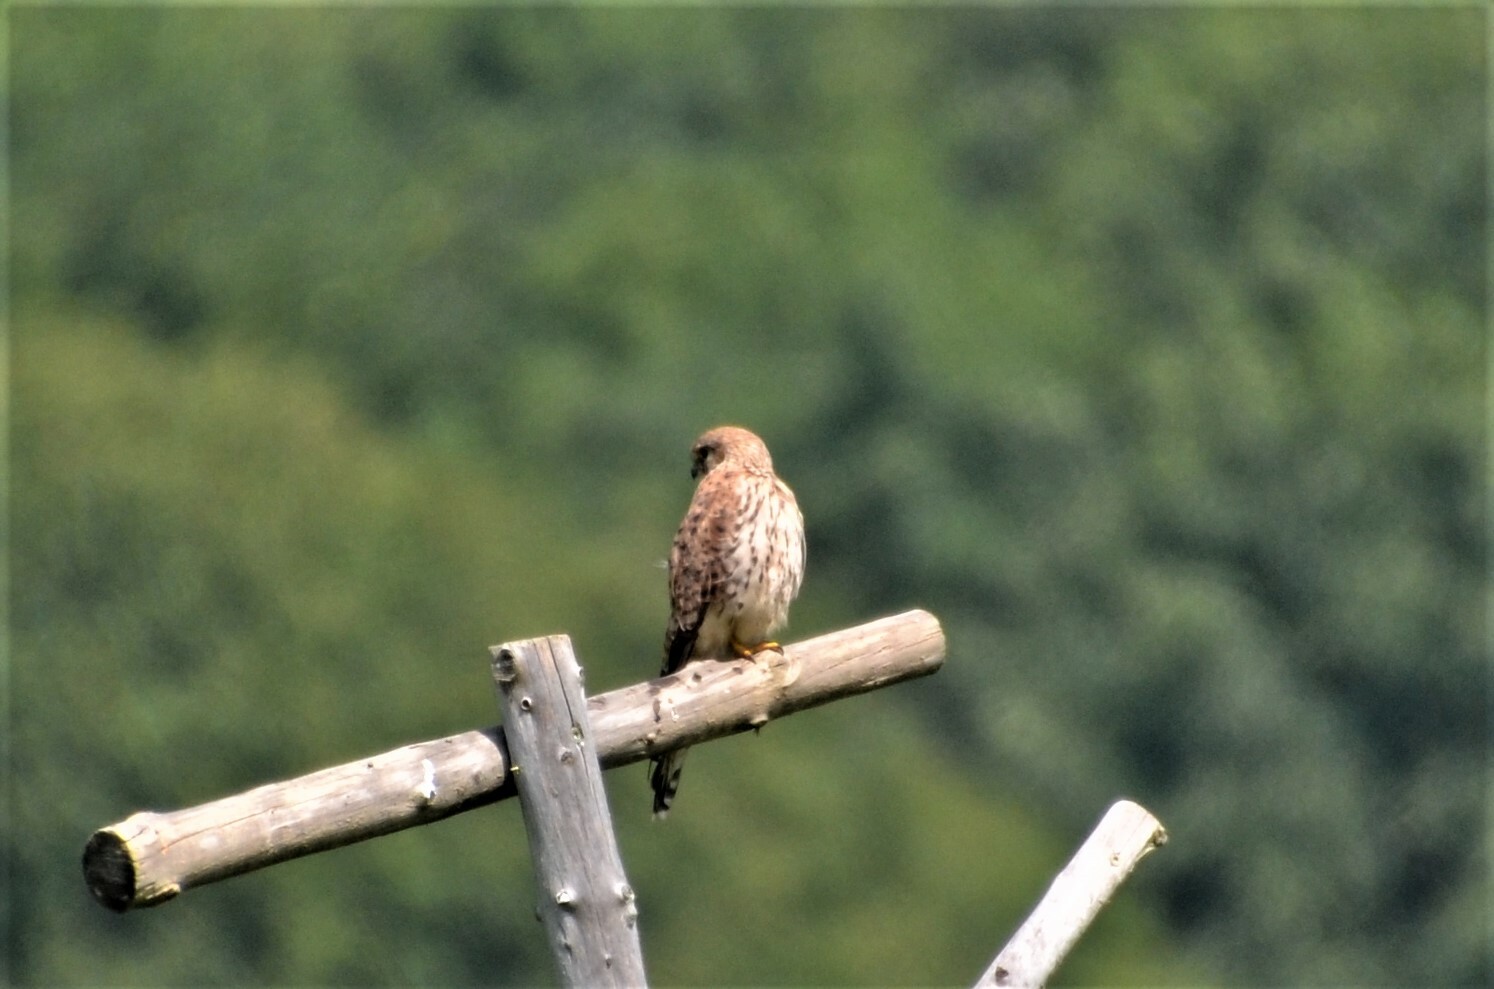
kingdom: Animalia
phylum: Chordata
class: Aves
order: Falconiformes
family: Falconidae
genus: Falco
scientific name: Falco tinnunculus
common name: Common kestrel
